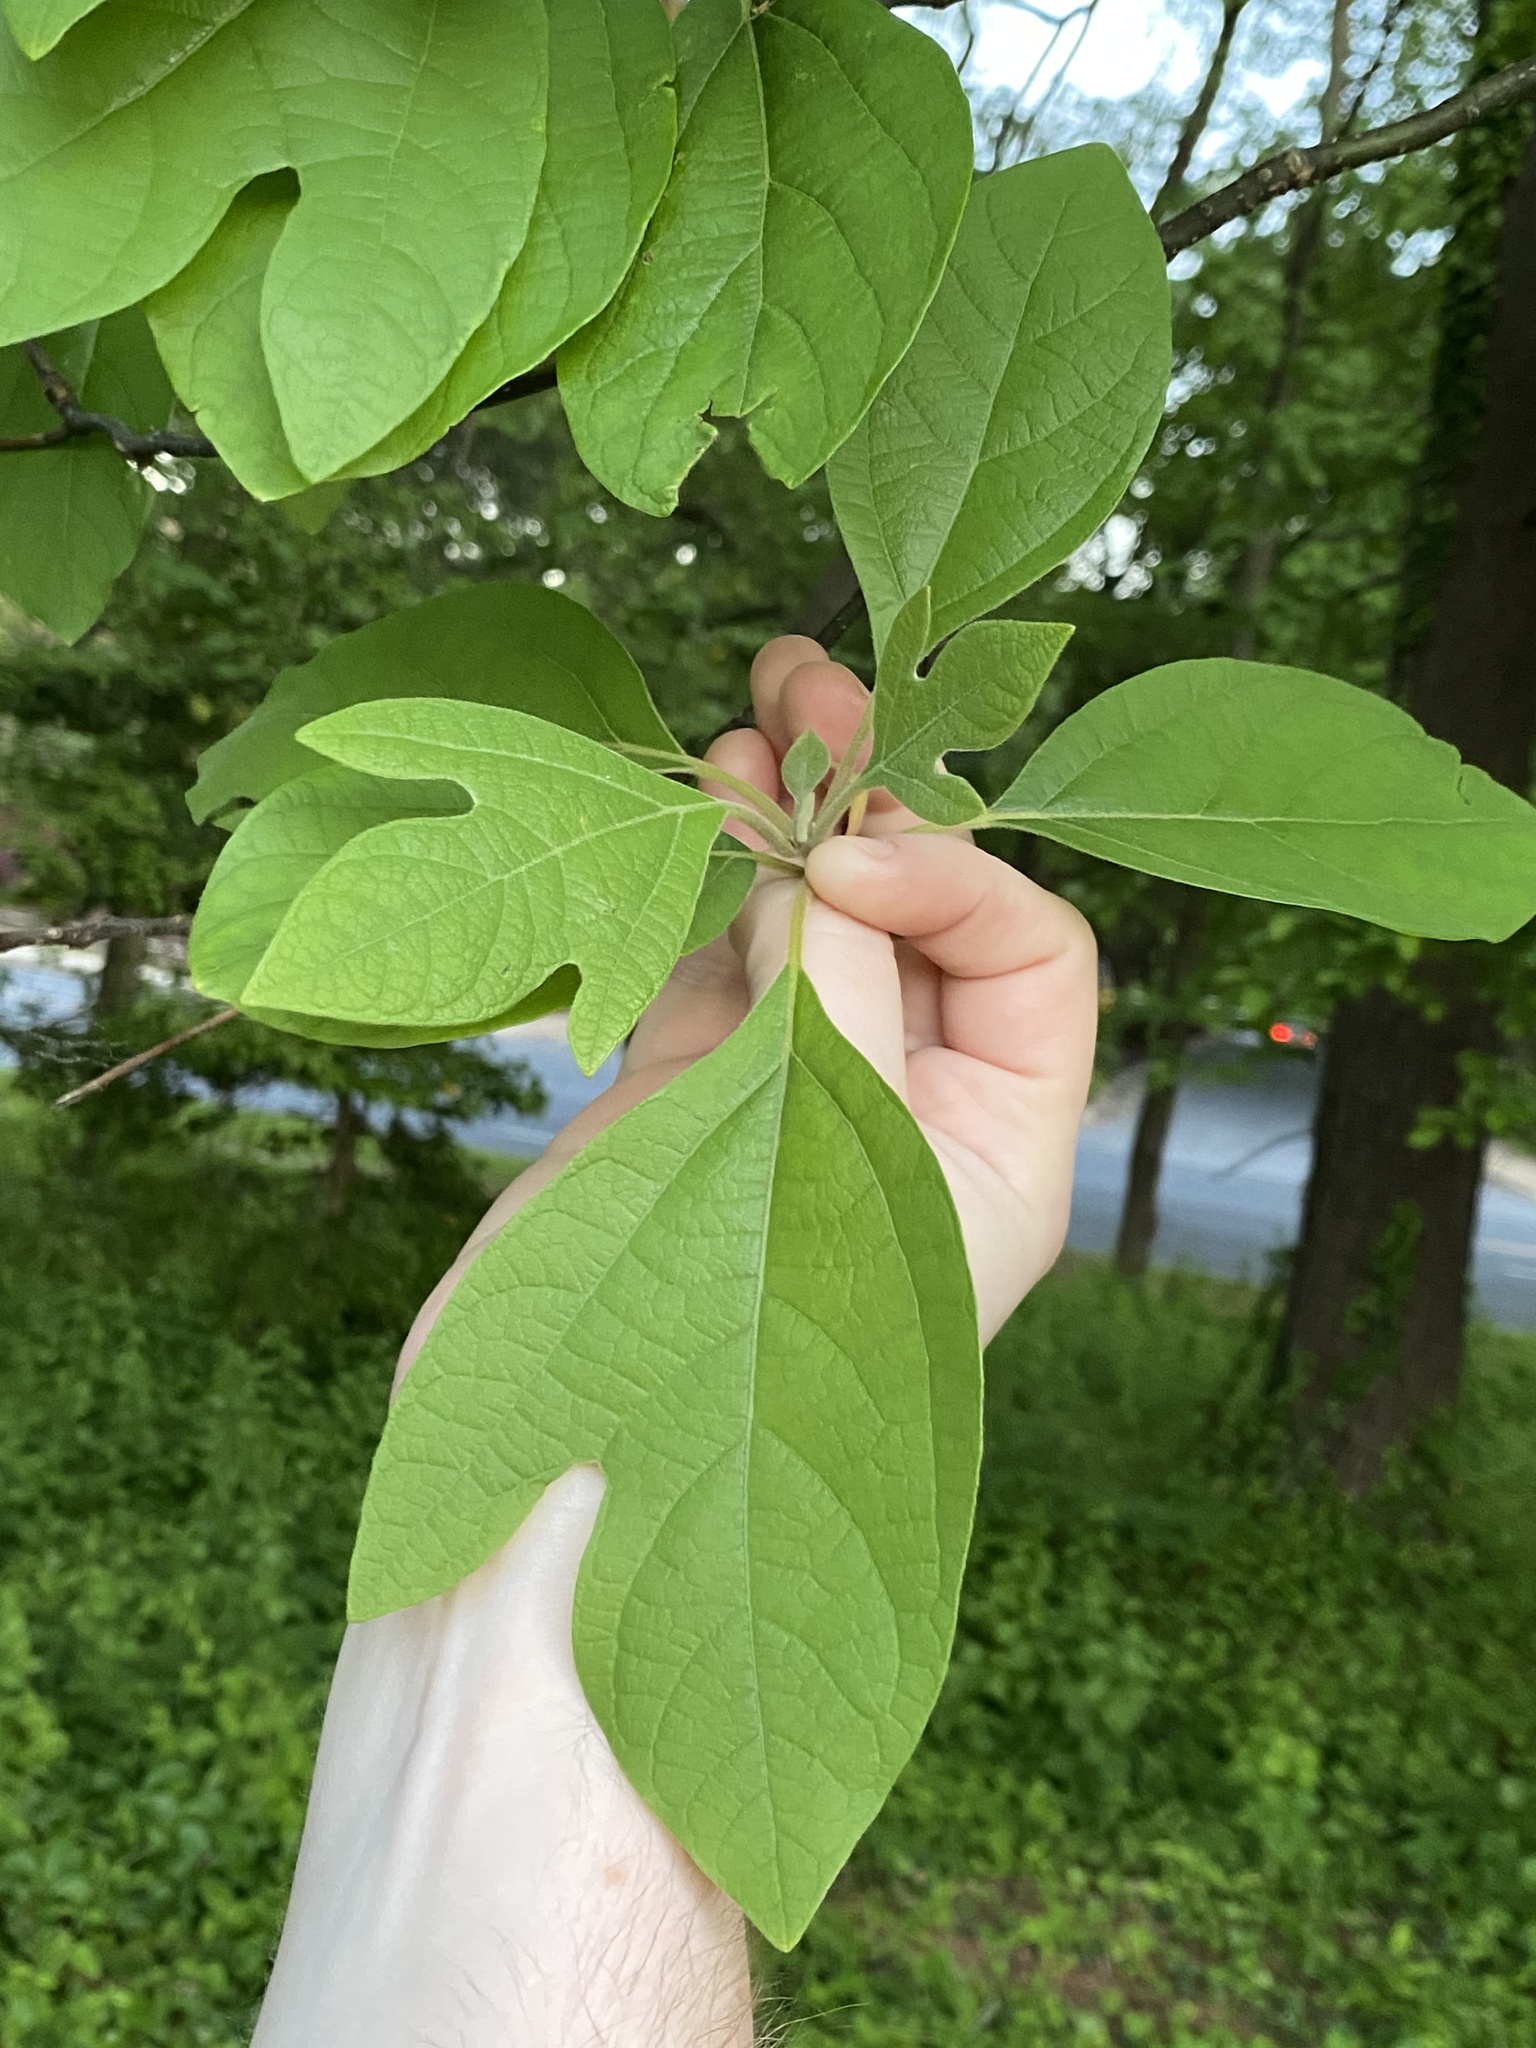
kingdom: Plantae
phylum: Tracheophyta
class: Magnoliopsida
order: Laurales
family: Lauraceae
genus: Sassafras
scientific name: Sassafras albidum
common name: Sassafras
